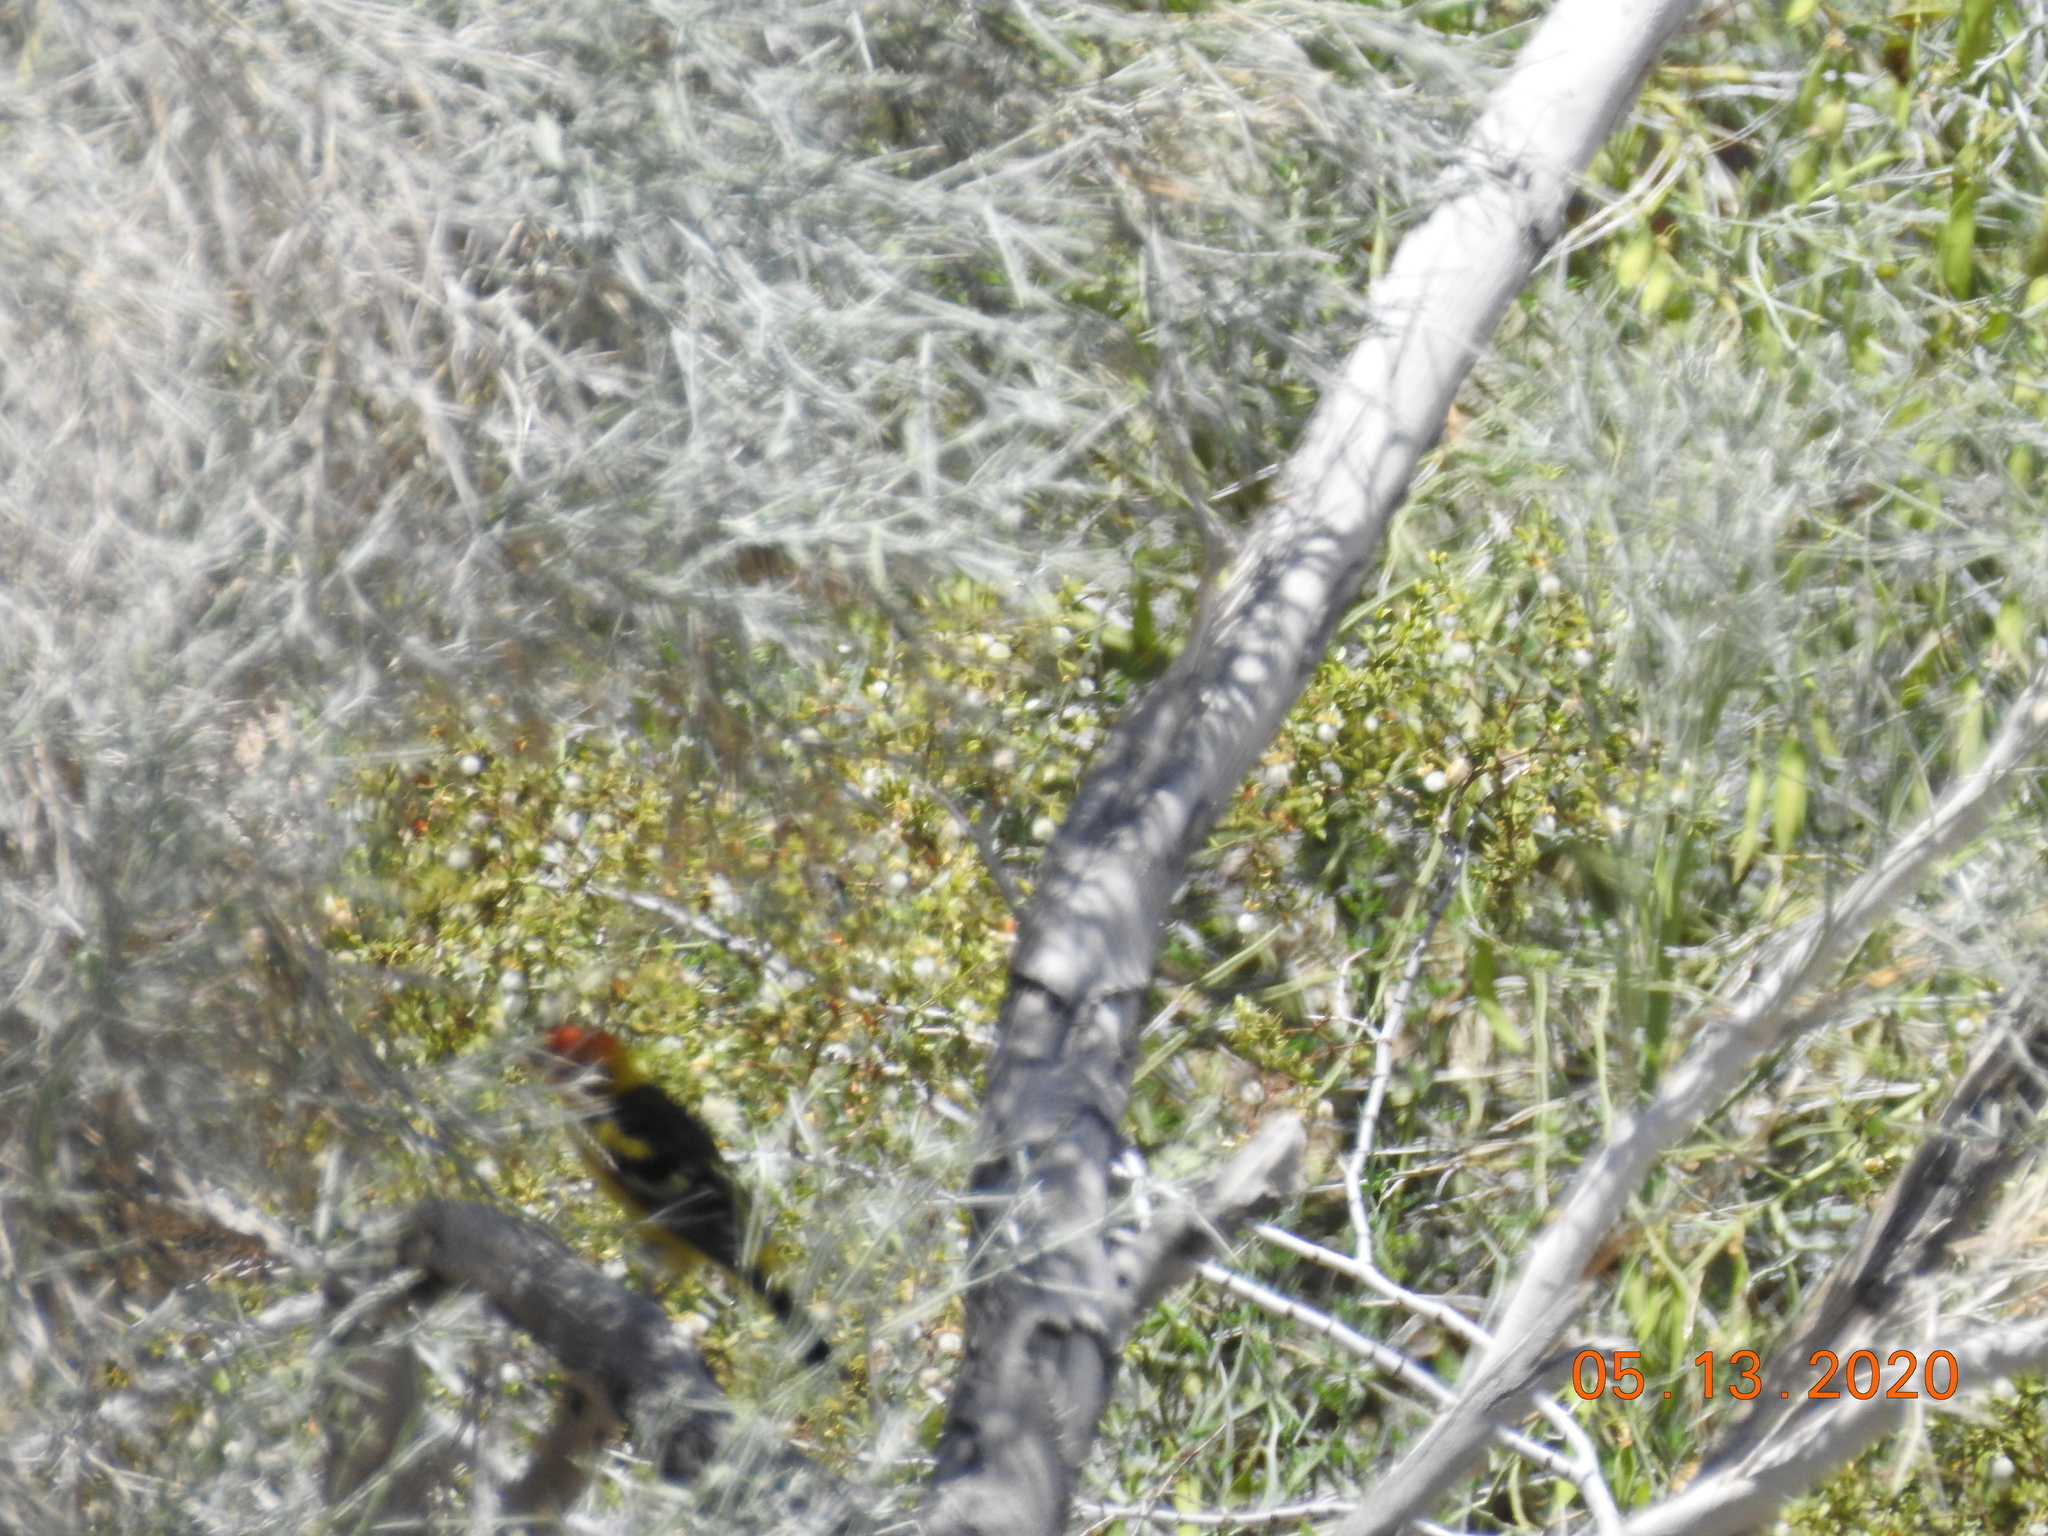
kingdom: Animalia
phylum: Chordata
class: Aves
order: Passeriformes
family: Cardinalidae
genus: Piranga
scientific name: Piranga ludoviciana
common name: Western tanager
